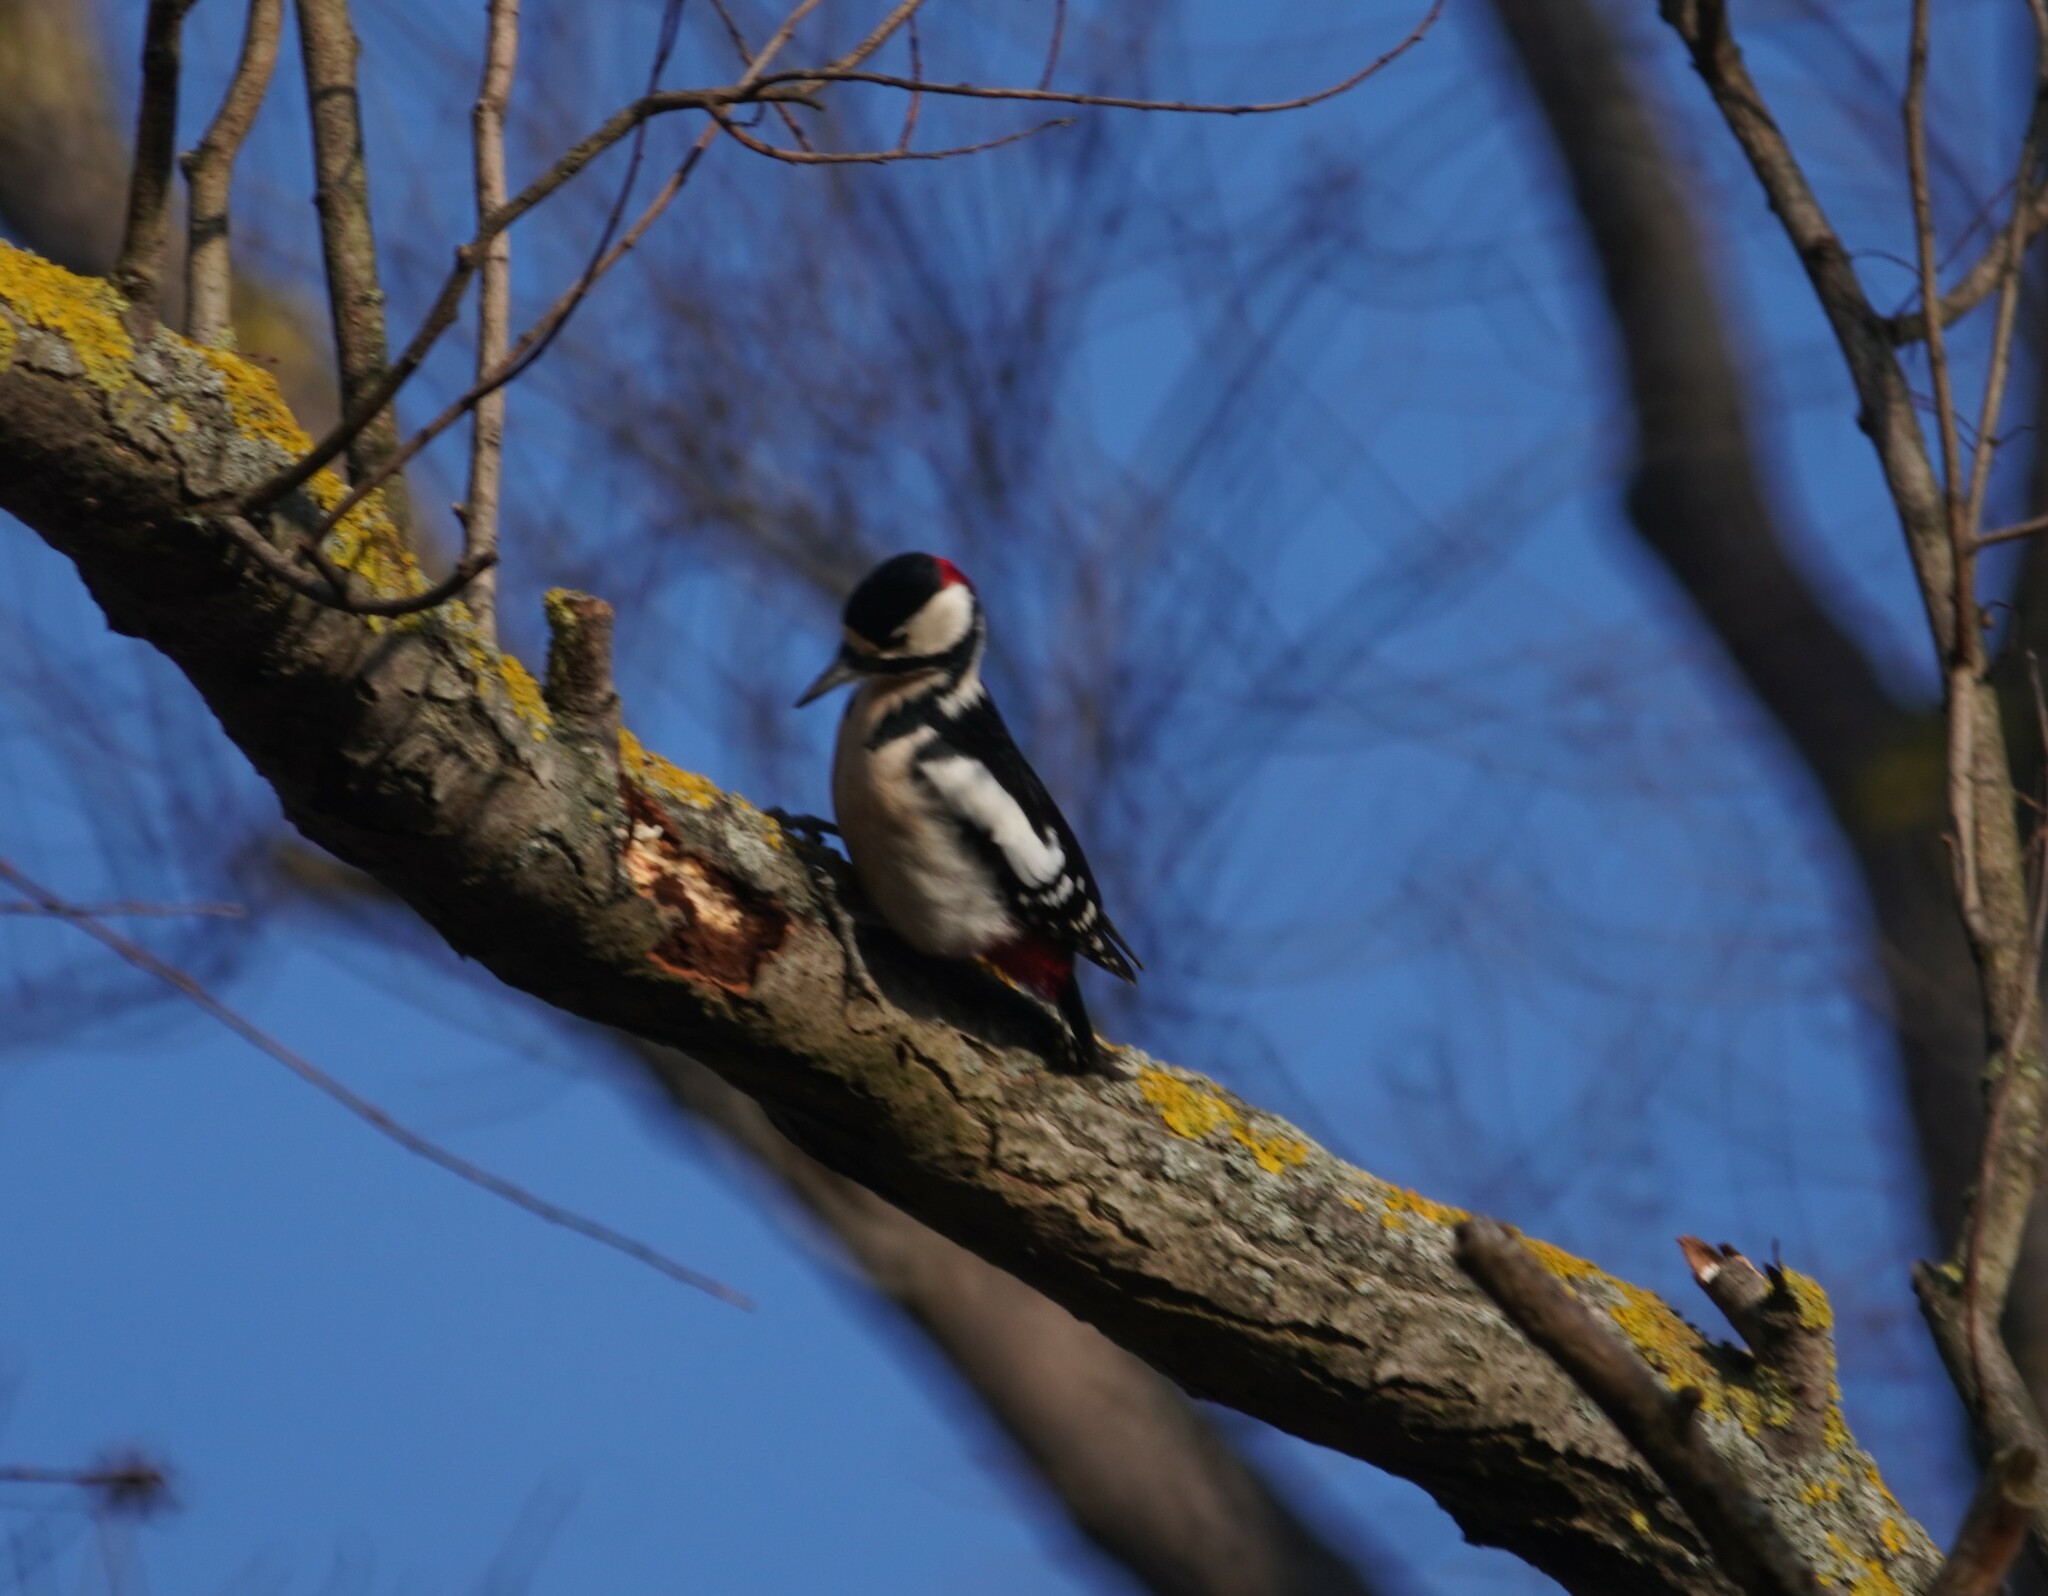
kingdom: Animalia
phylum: Chordata
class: Aves
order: Piciformes
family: Picidae
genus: Dendrocopos
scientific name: Dendrocopos major
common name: Great spotted woodpecker
